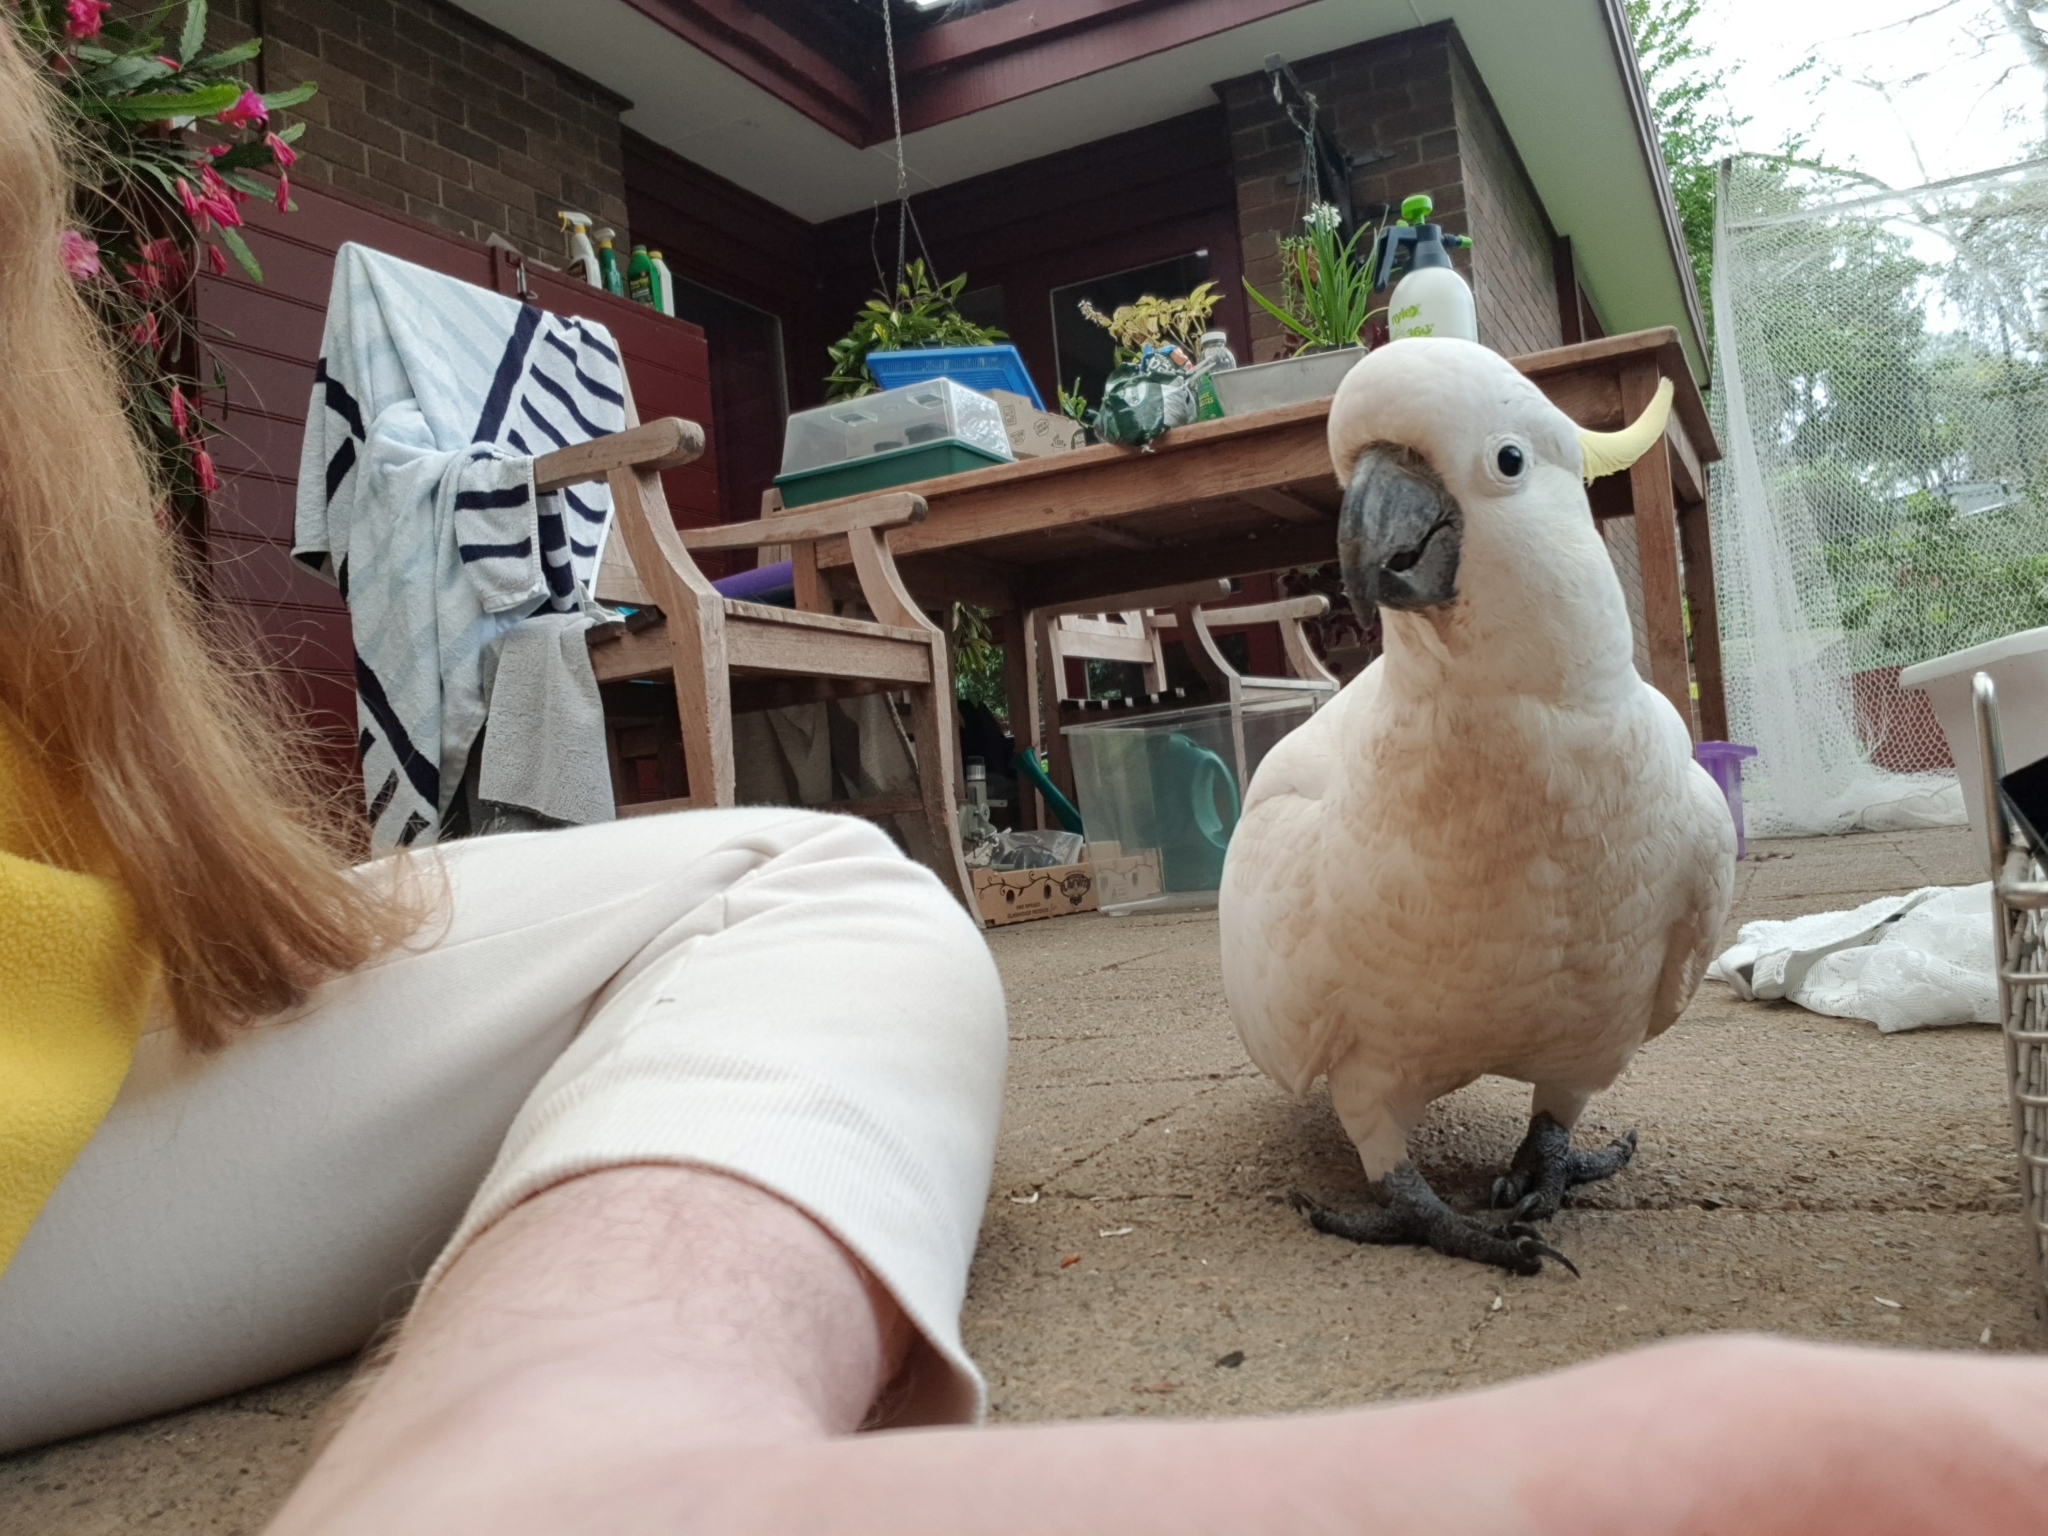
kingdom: Animalia
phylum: Chordata
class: Aves
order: Psittaciformes
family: Psittacidae
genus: Cacatua
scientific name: Cacatua galerita
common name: Sulphur-crested cockatoo
